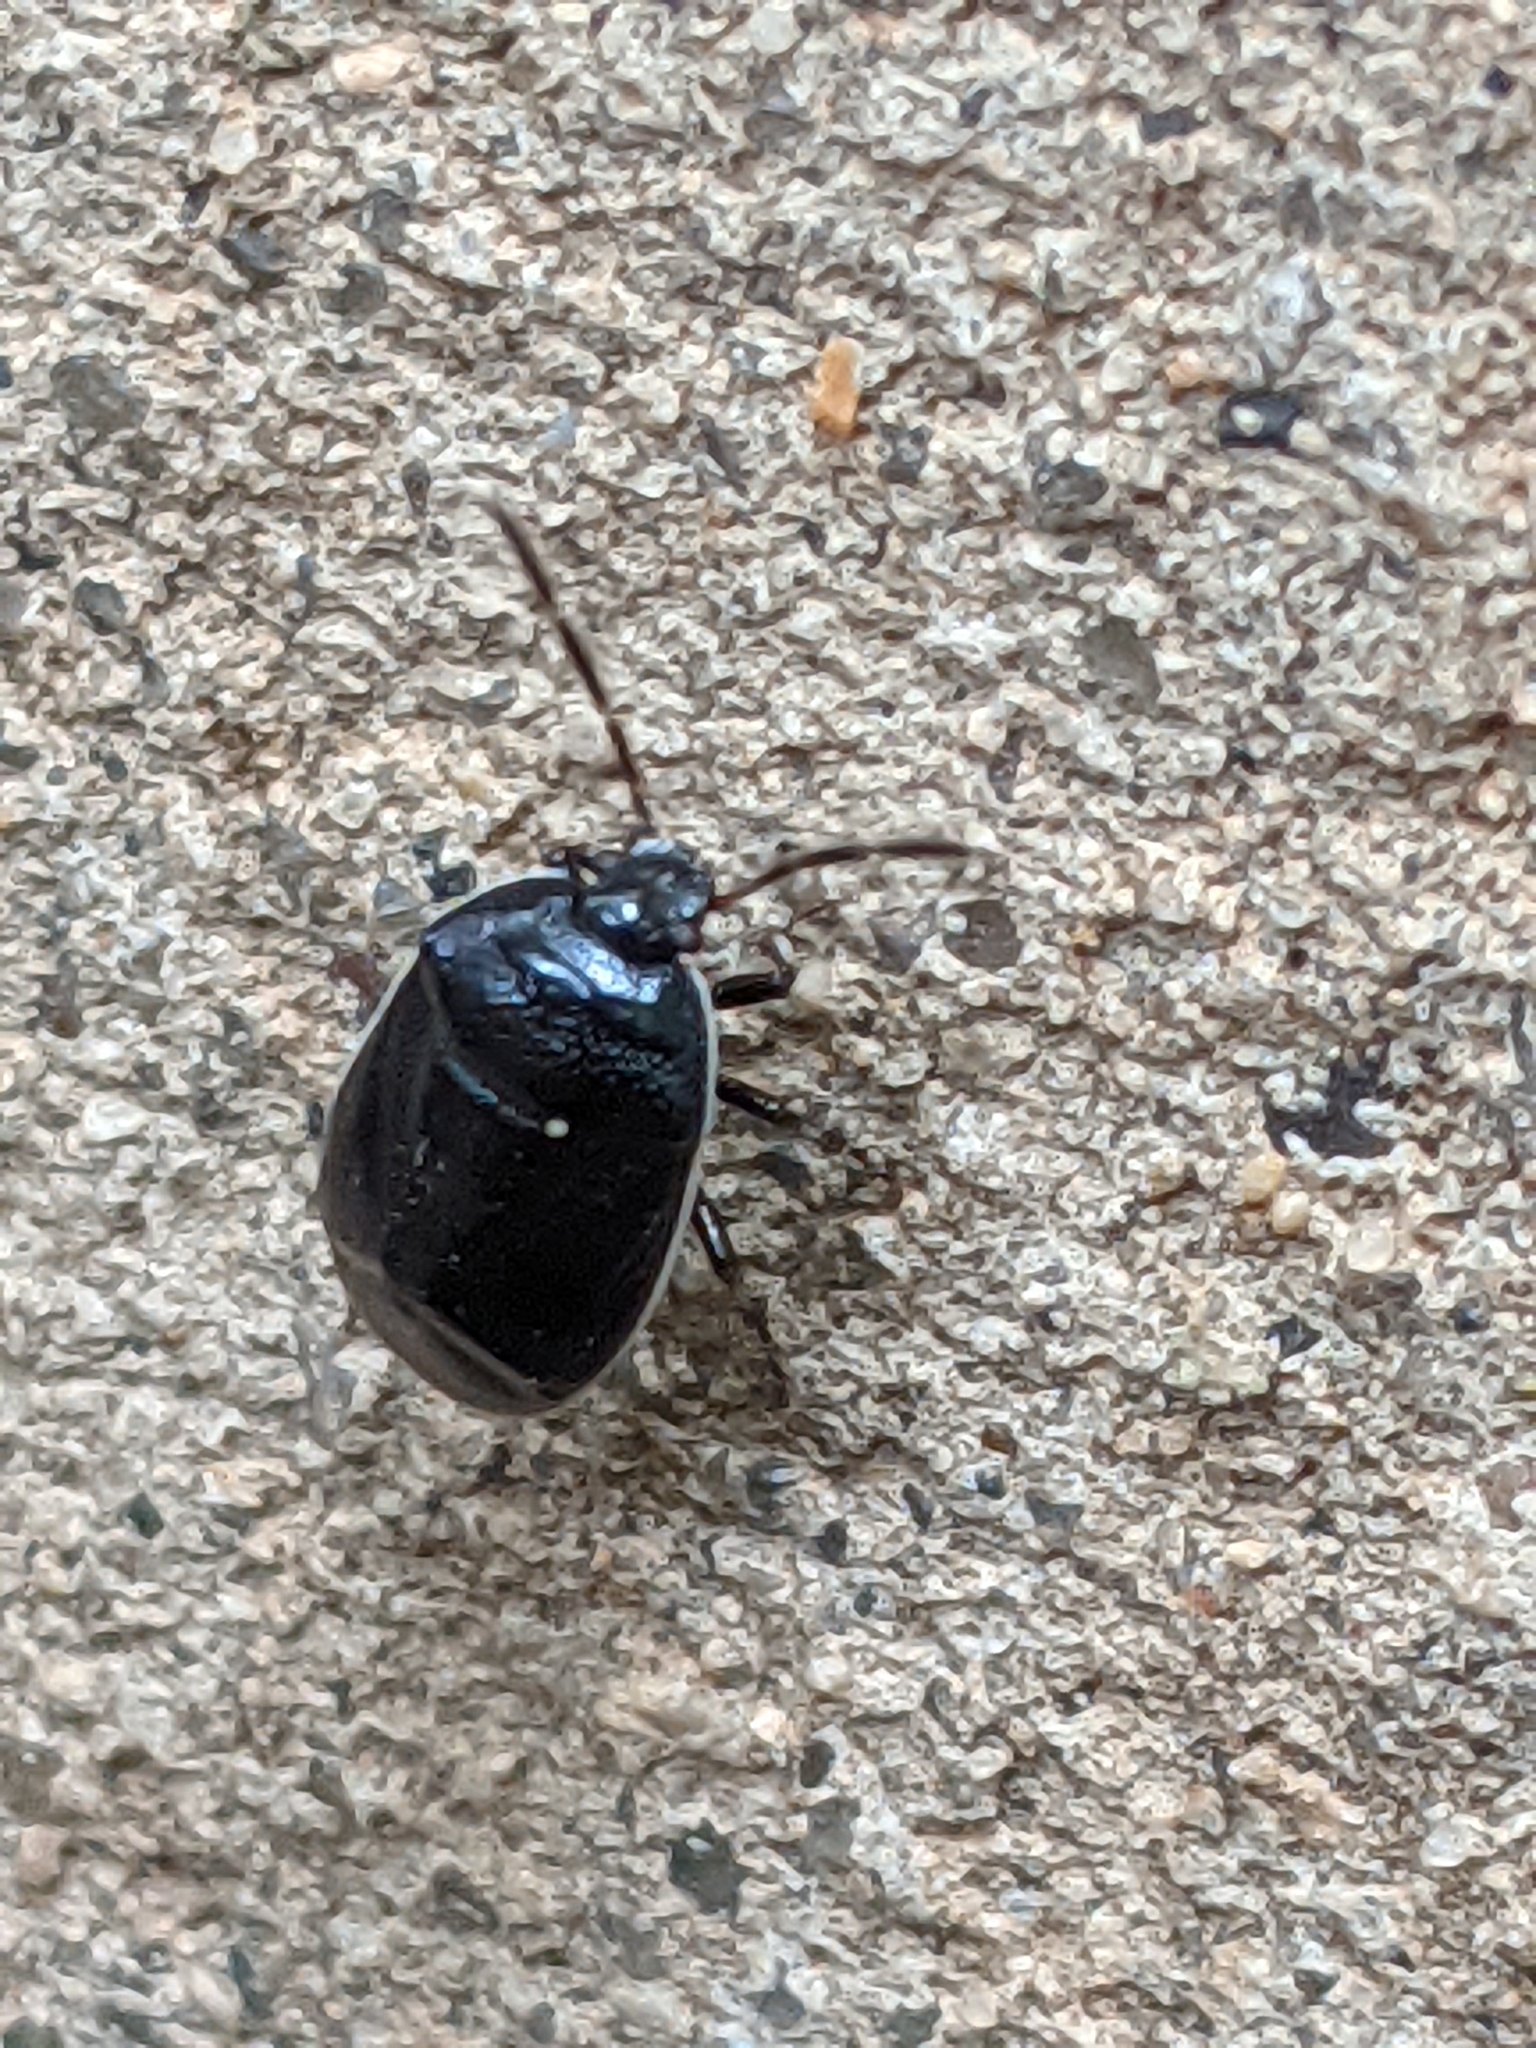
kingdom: Animalia
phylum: Arthropoda
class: Insecta
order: Hemiptera
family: Cydnidae
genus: Sehirus
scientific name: Sehirus cinctus
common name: White-margined burrower bug
